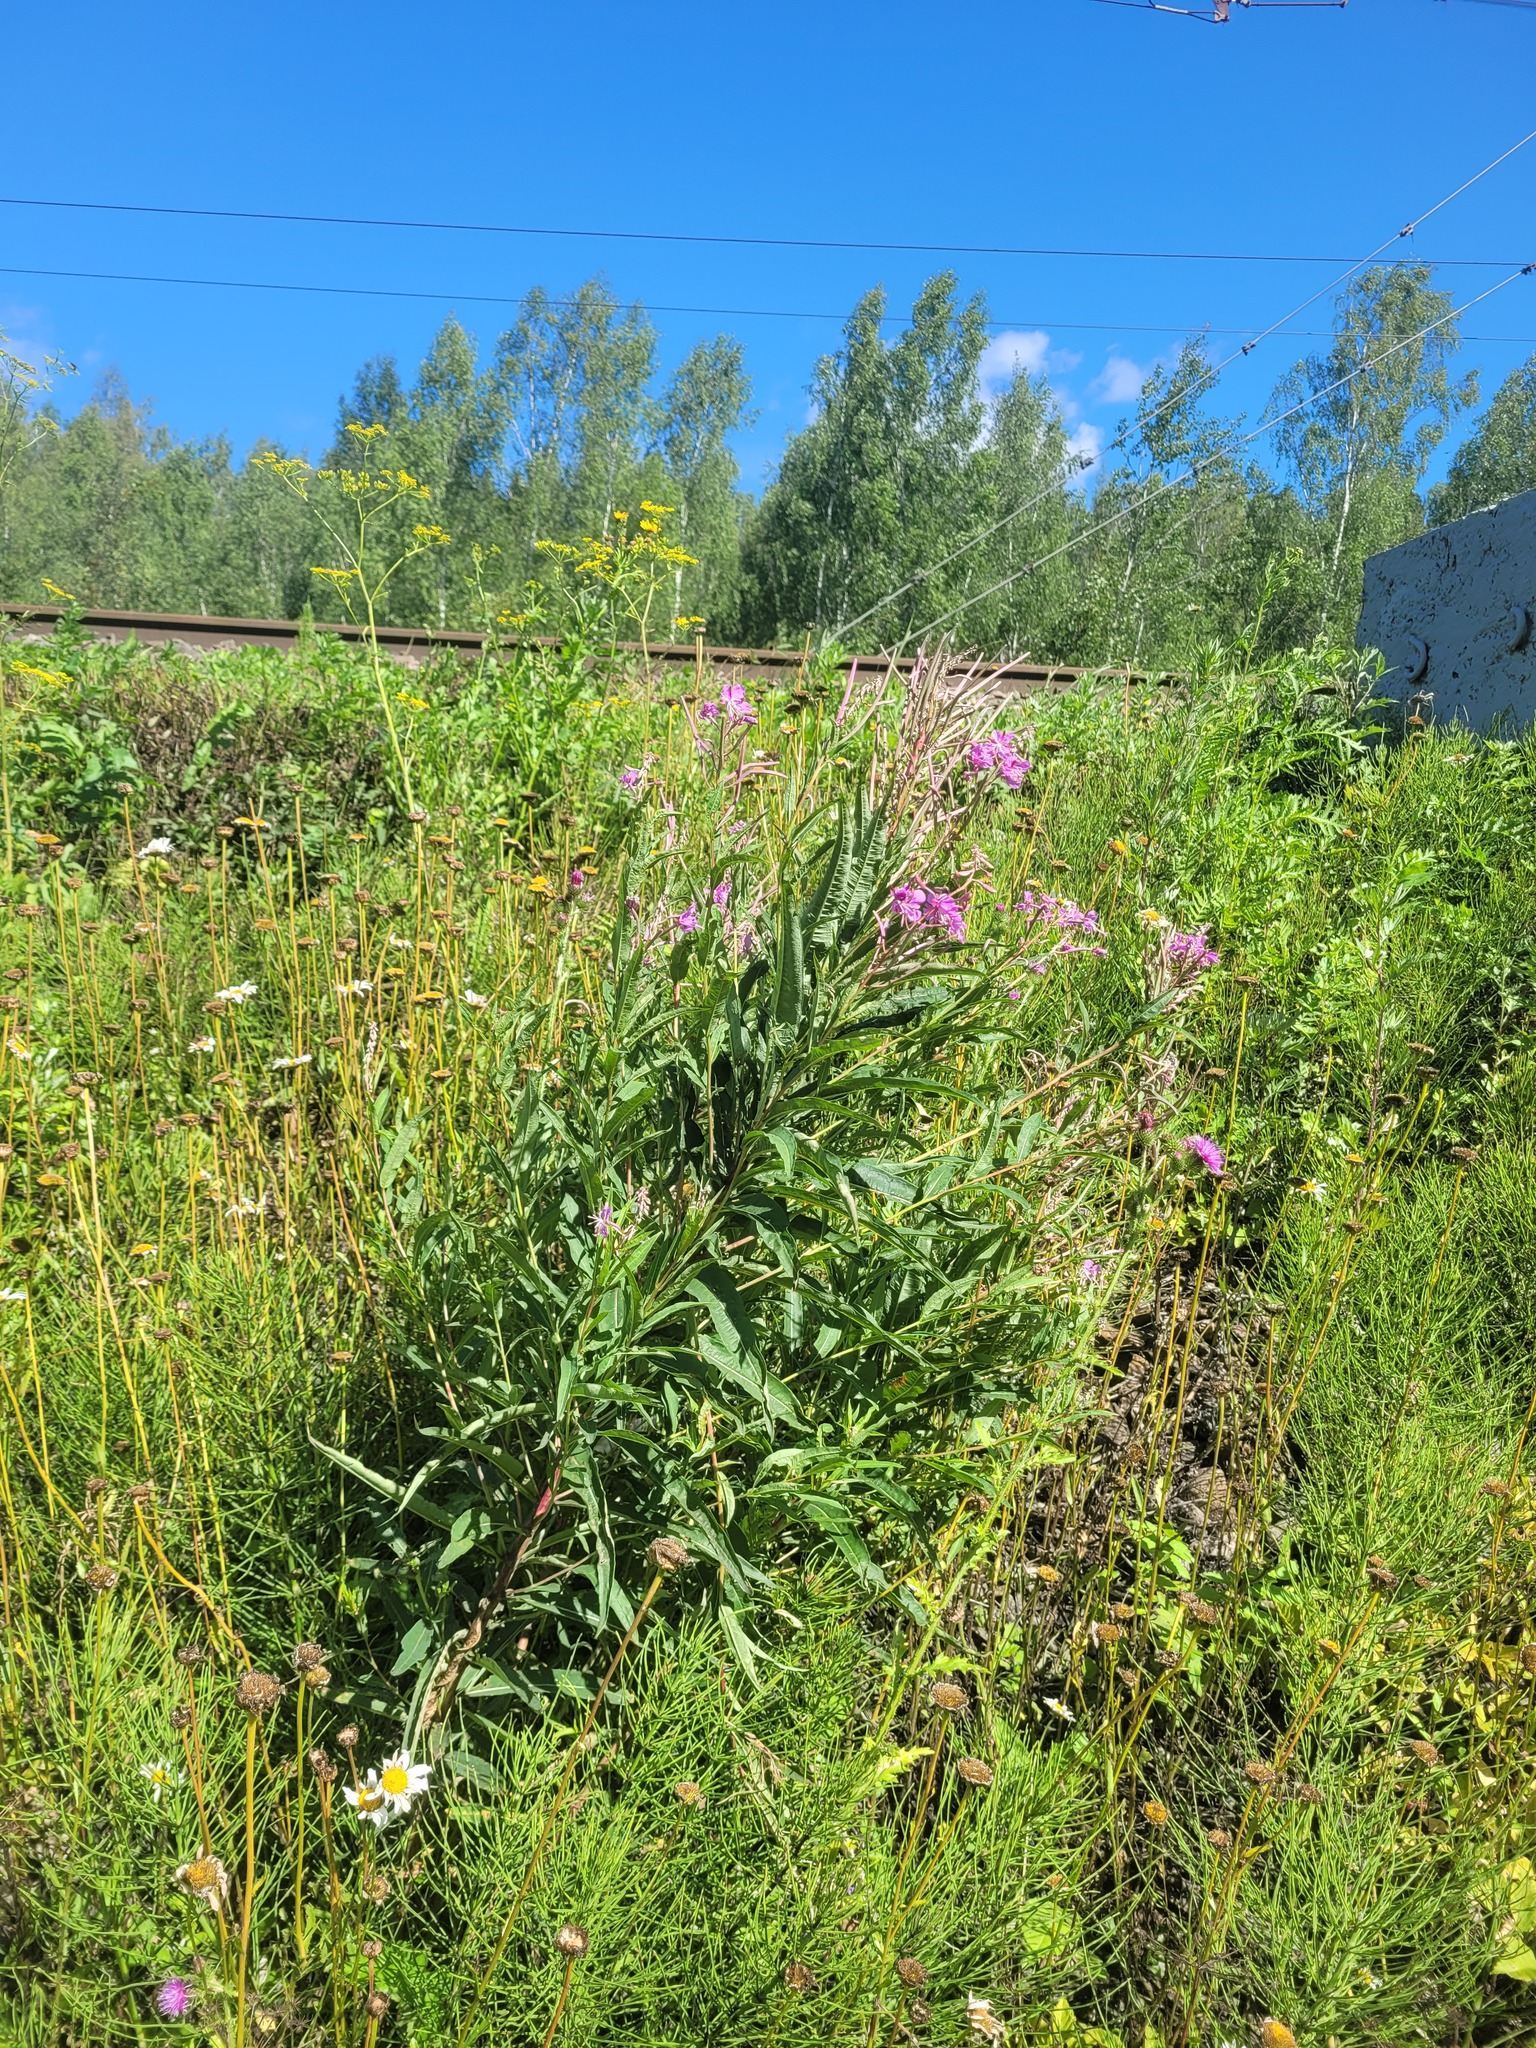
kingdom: Plantae
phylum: Tracheophyta
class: Magnoliopsida
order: Myrtales
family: Onagraceae
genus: Chamaenerion
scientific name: Chamaenerion angustifolium
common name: Fireweed
